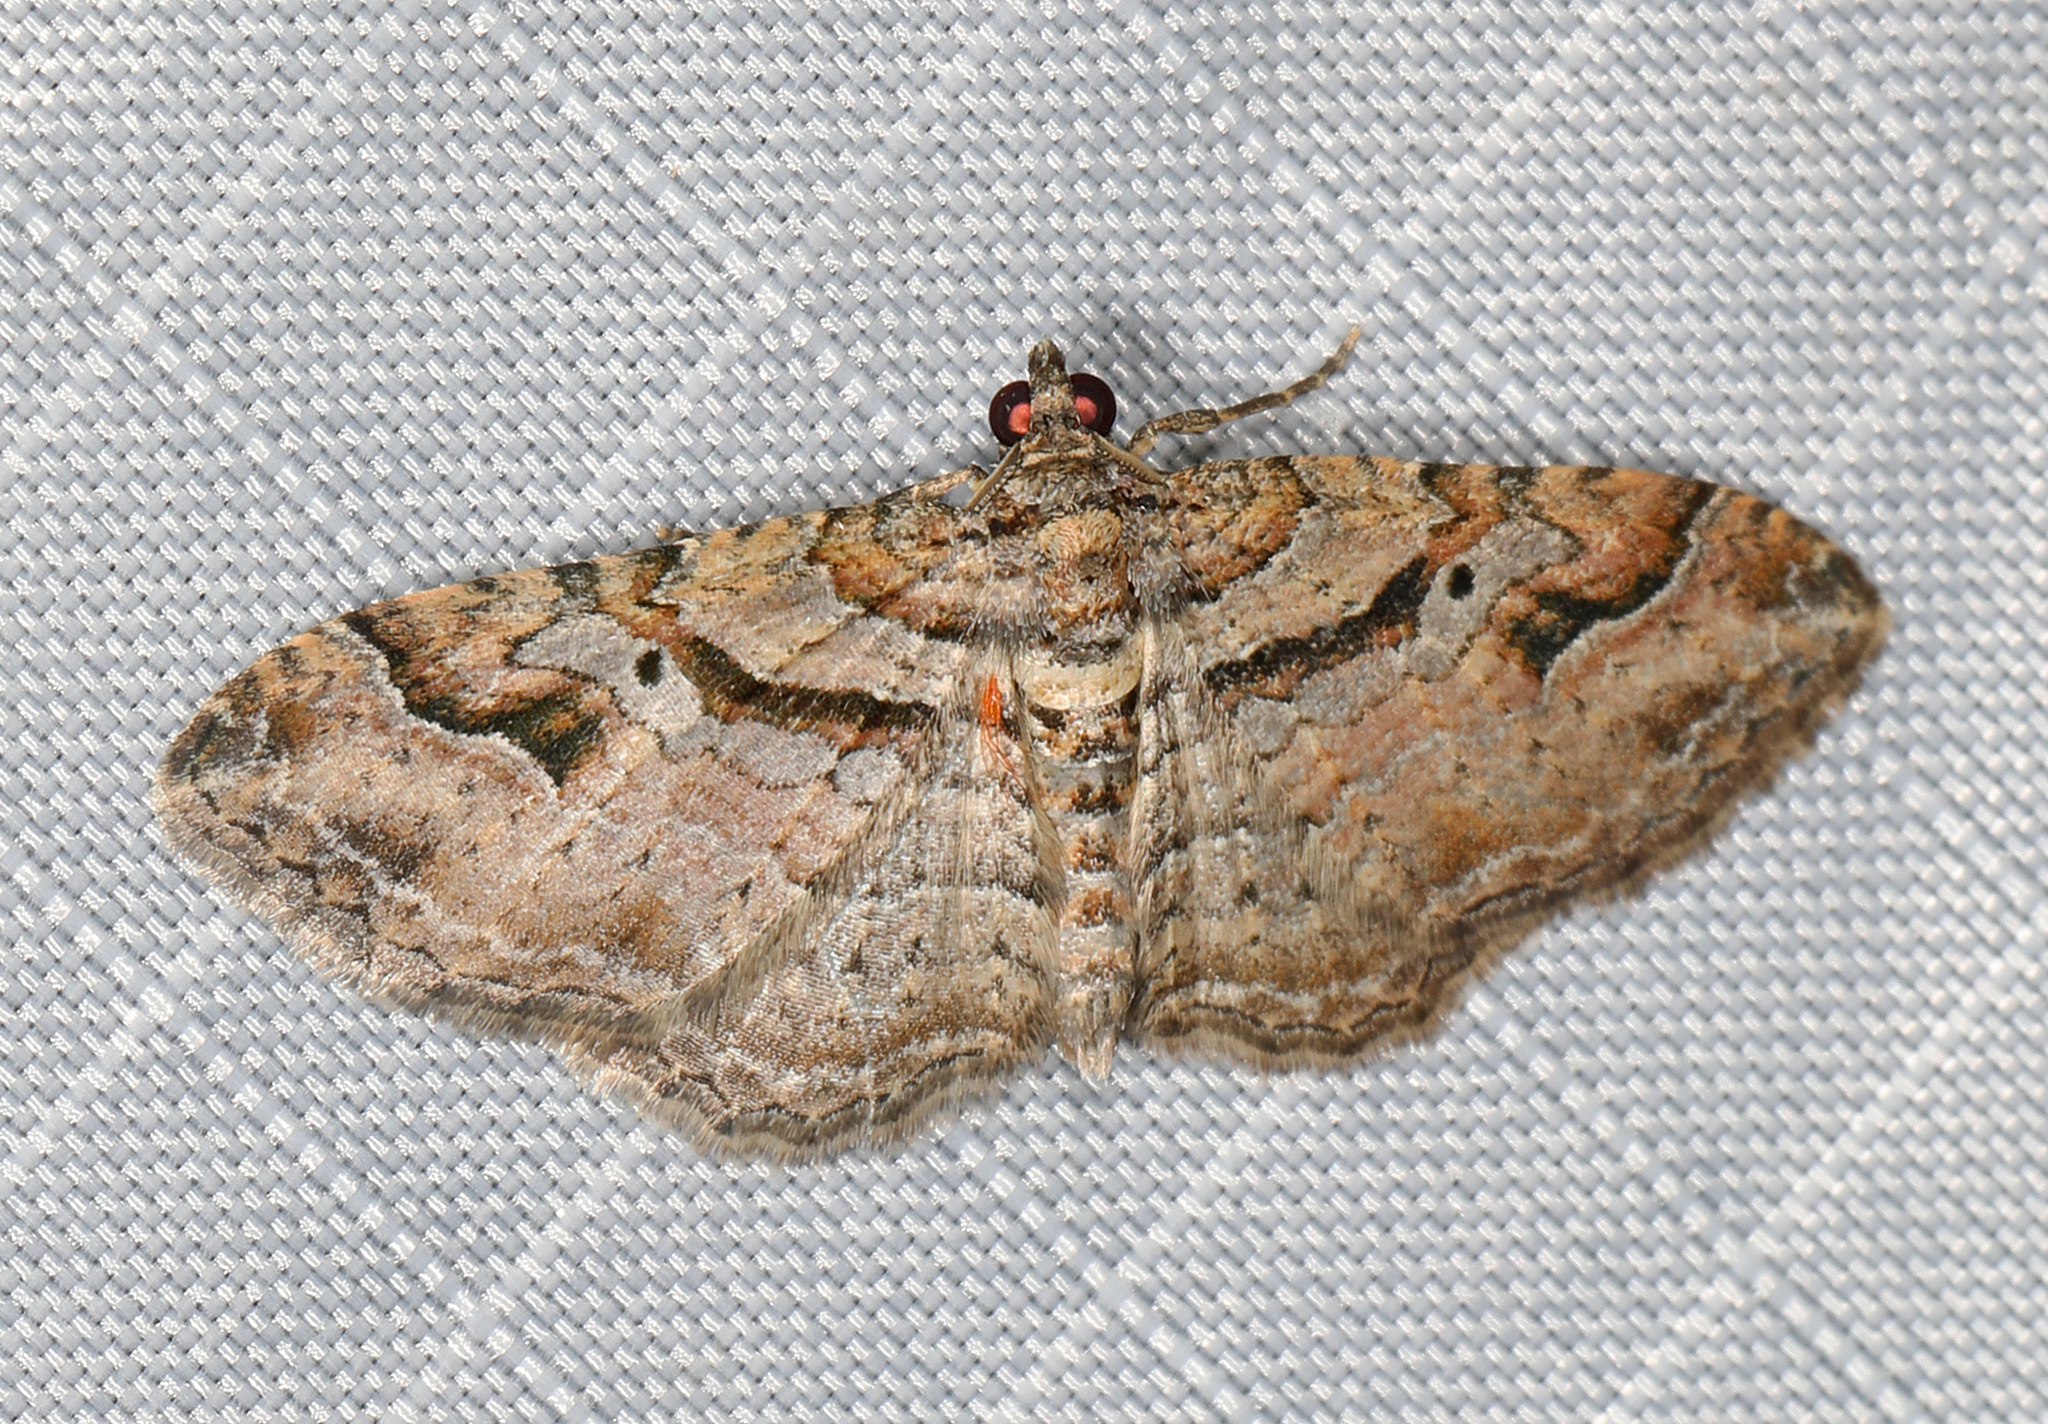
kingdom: Animalia
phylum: Arthropoda
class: Insecta
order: Lepidoptera
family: Geometridae
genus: Costaconvexa
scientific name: Costaconvexa centrostrigaria
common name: Bent-line carpet
